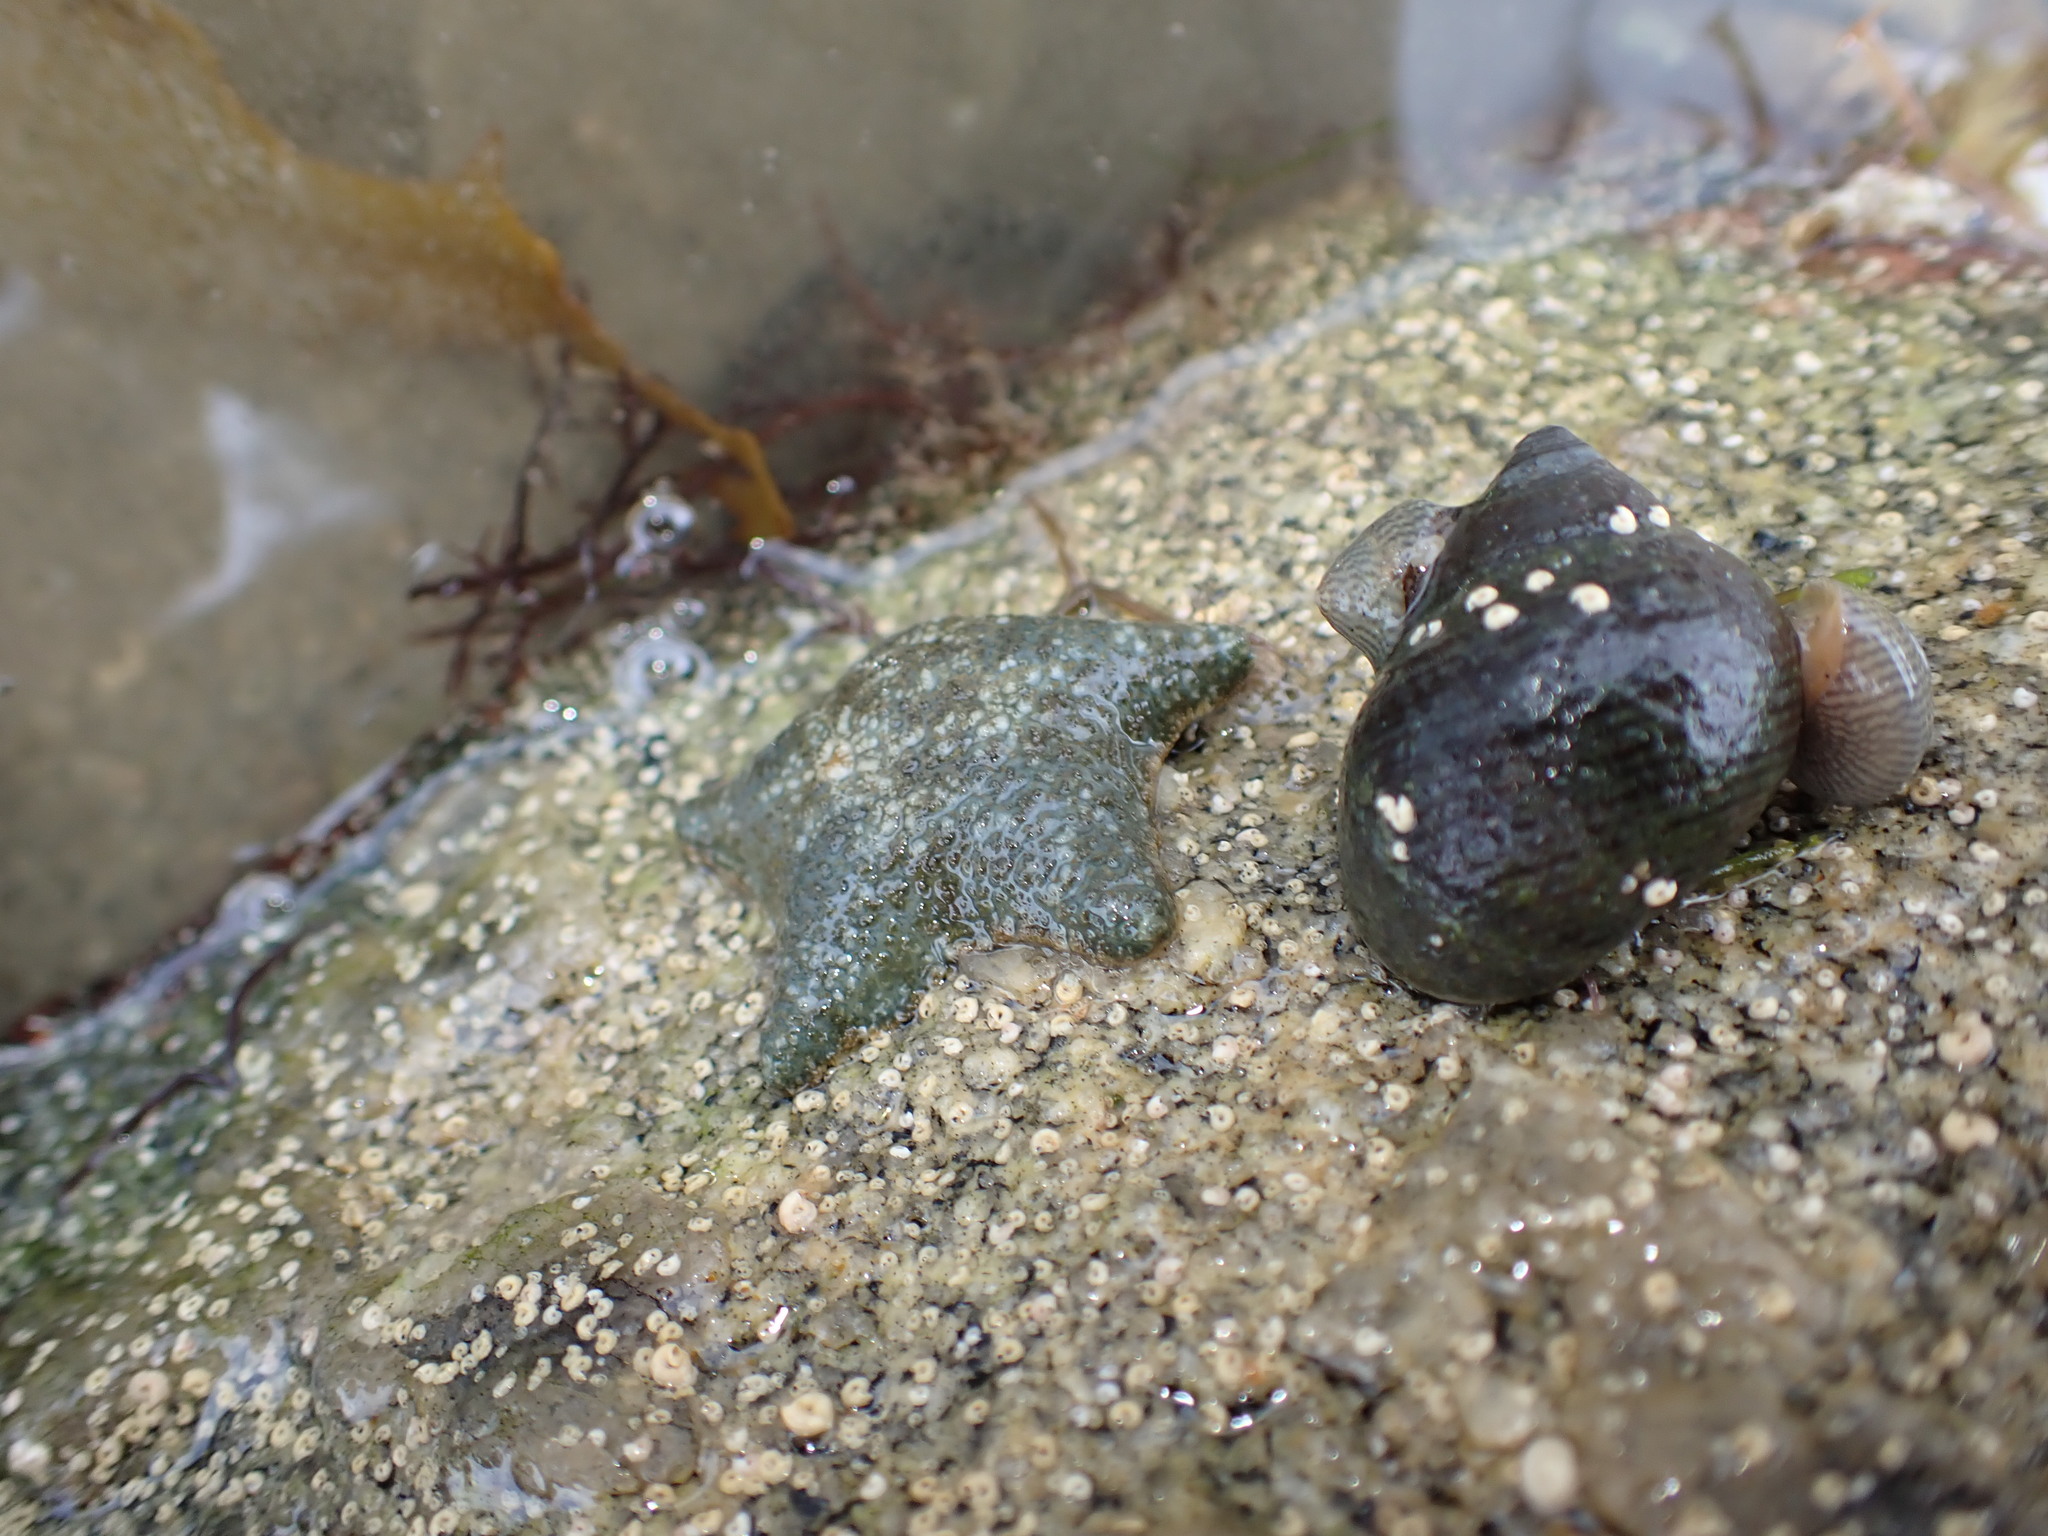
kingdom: Animalia
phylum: Echinodermata
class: Asteroidea
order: Valvatida
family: Asterinidae
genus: Asterina
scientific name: Asterina gibbosa
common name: Cushion star
